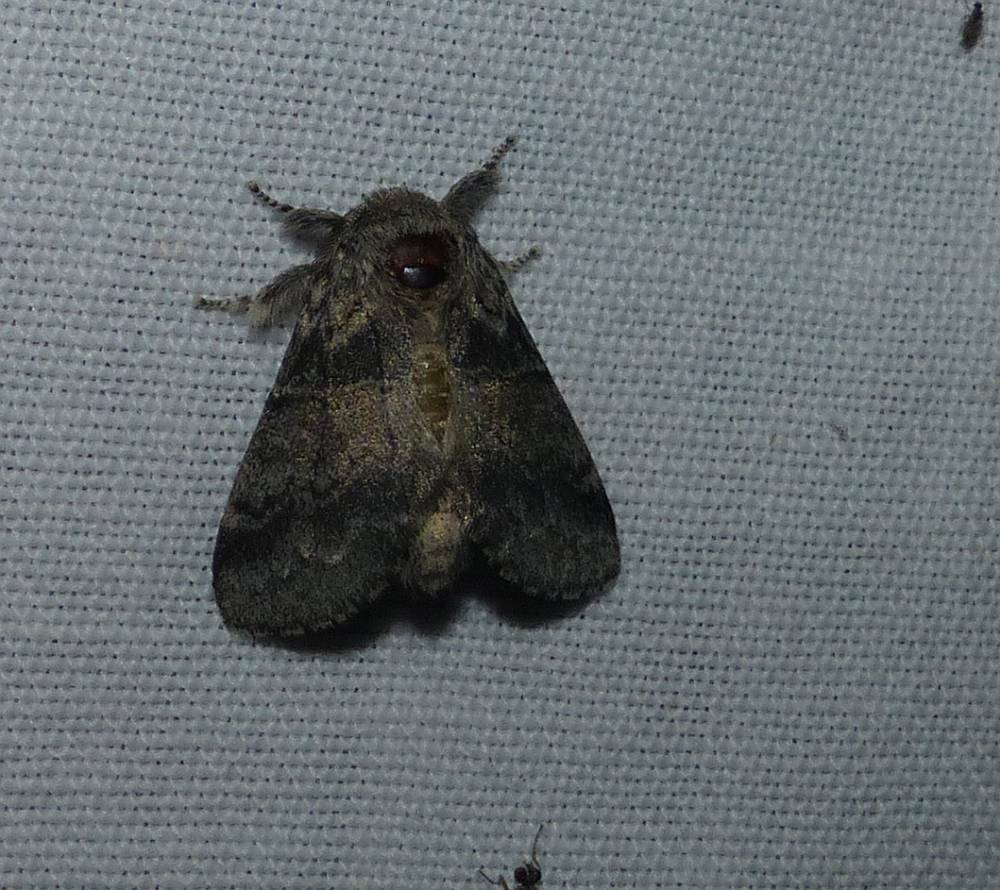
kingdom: Animalia
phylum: Arthropoda
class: Insecta
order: Lepidoptera
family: Notodontidae
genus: Gluphisia
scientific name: Gluphisia septentrionis
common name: Common gluphisia
